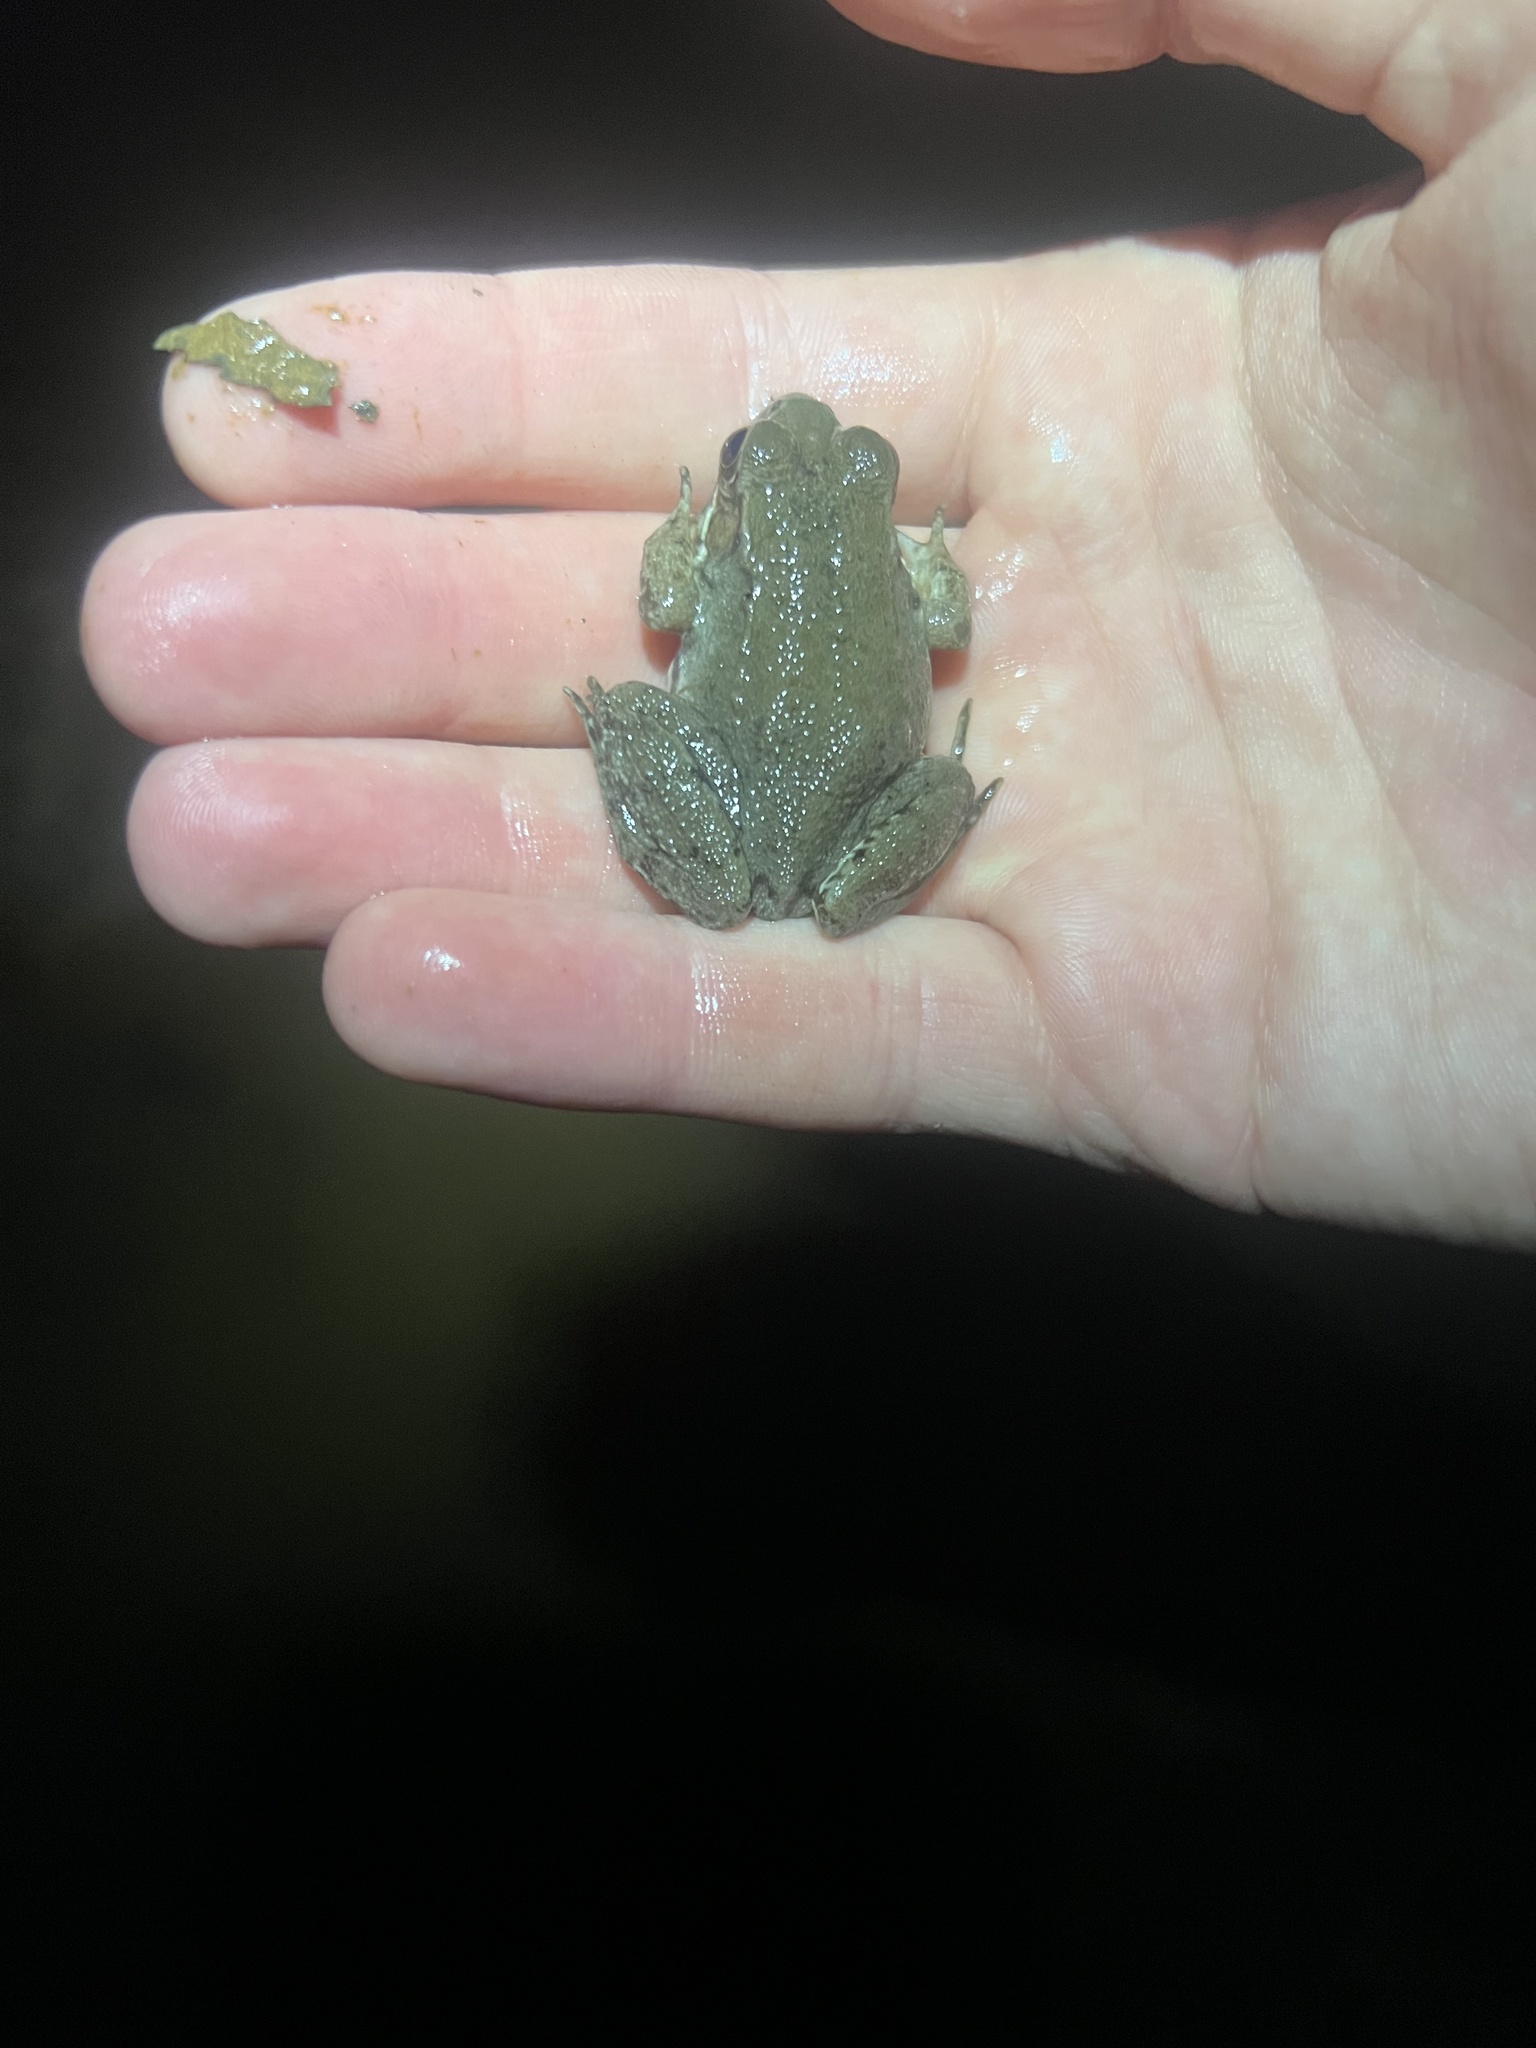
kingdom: Animalia
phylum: Chordata
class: Amphibia
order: Anura
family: Ranidae
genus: Lithobates
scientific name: Lithobates clamitans
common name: Green frog
